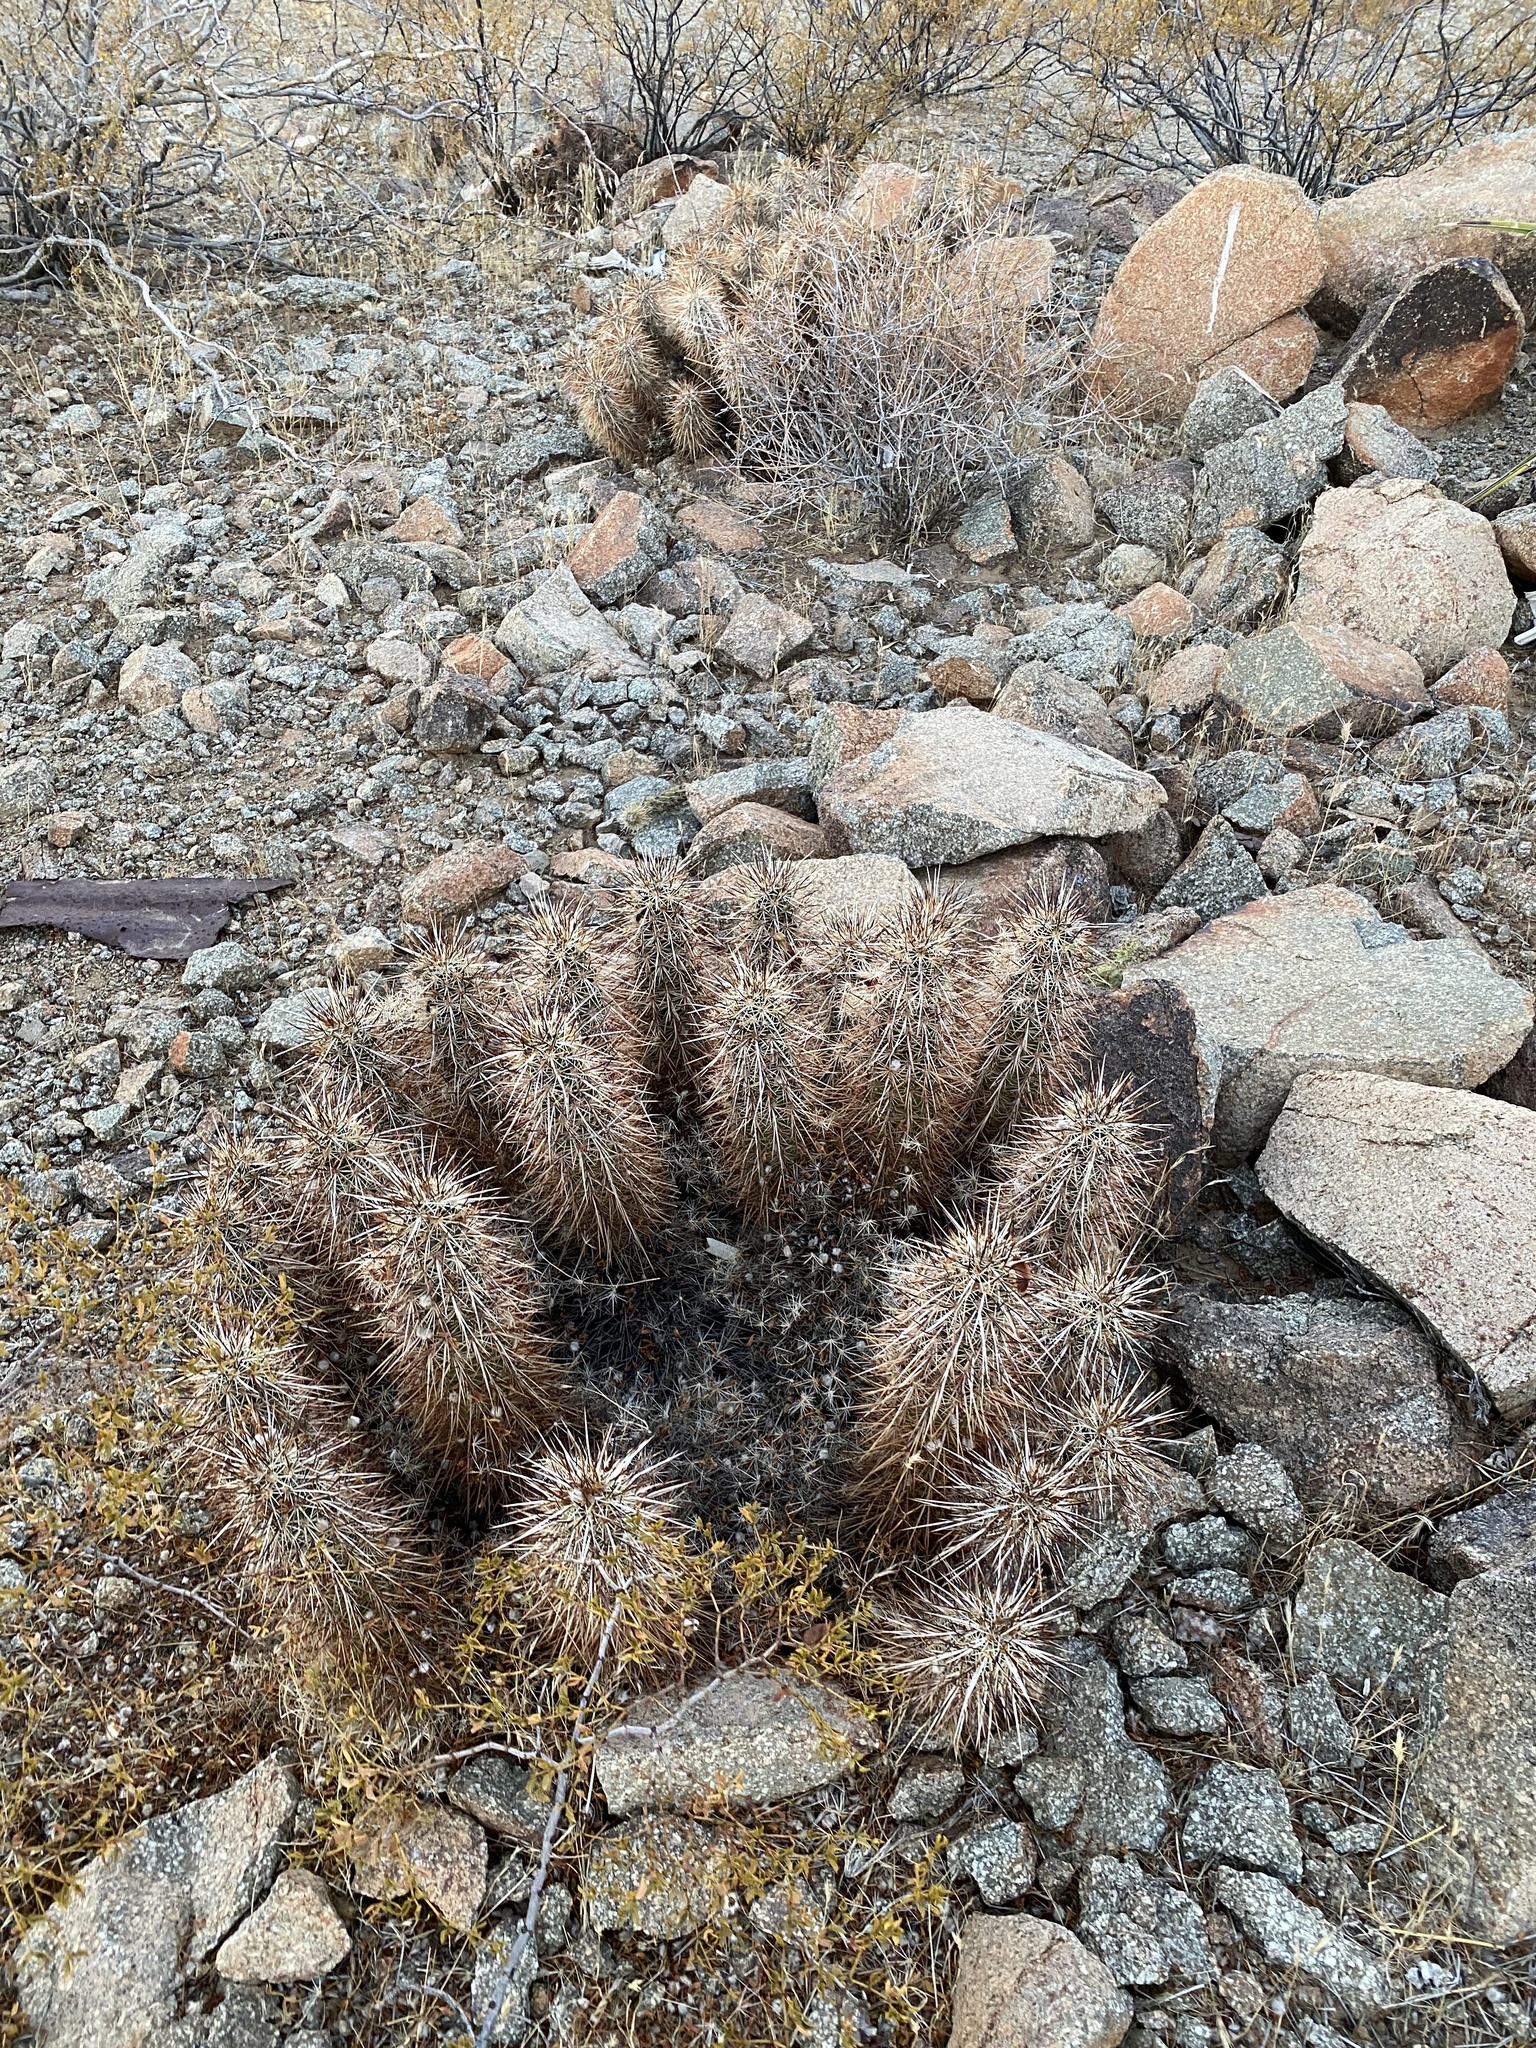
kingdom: Plantae
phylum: Tracheophyta
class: Magnoliopsida
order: Caryophyllales
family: Cactaceae
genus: Echinocereus
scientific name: Echinocereus engelmannii
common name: Engelmann's hedgehog cactus
